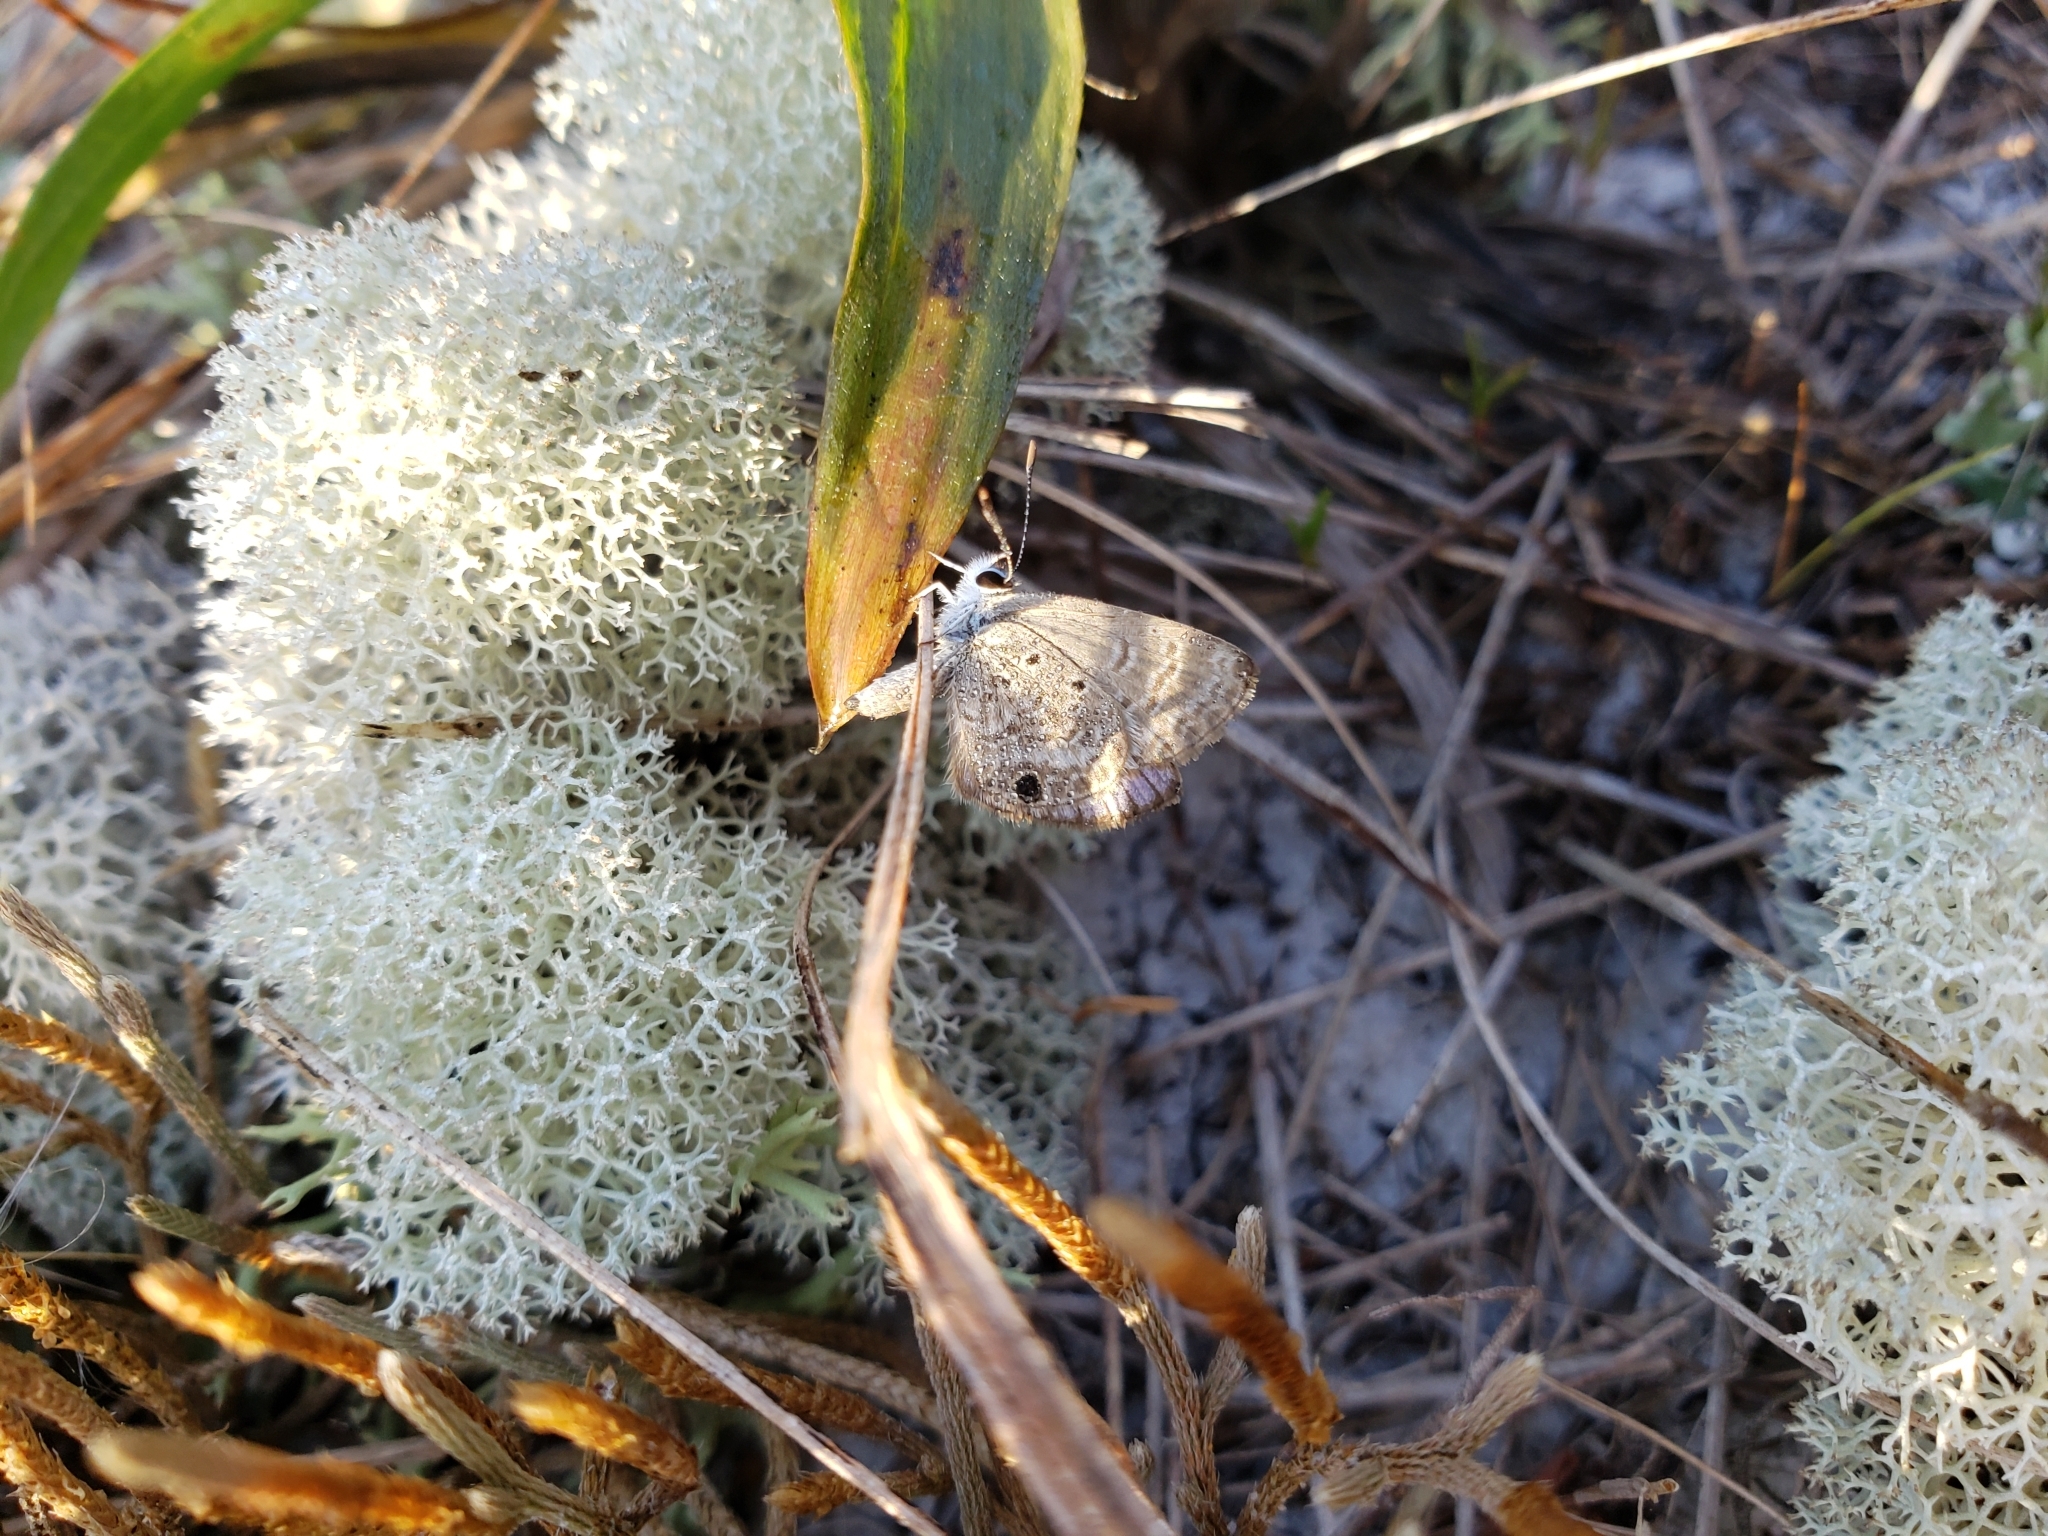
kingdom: Animalia
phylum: Arthropoda
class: Insecta
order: Lepidoptera
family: Lycaenidae
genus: Hemiargus
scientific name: Hemiargus ceraunus
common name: Ceraunus blue
